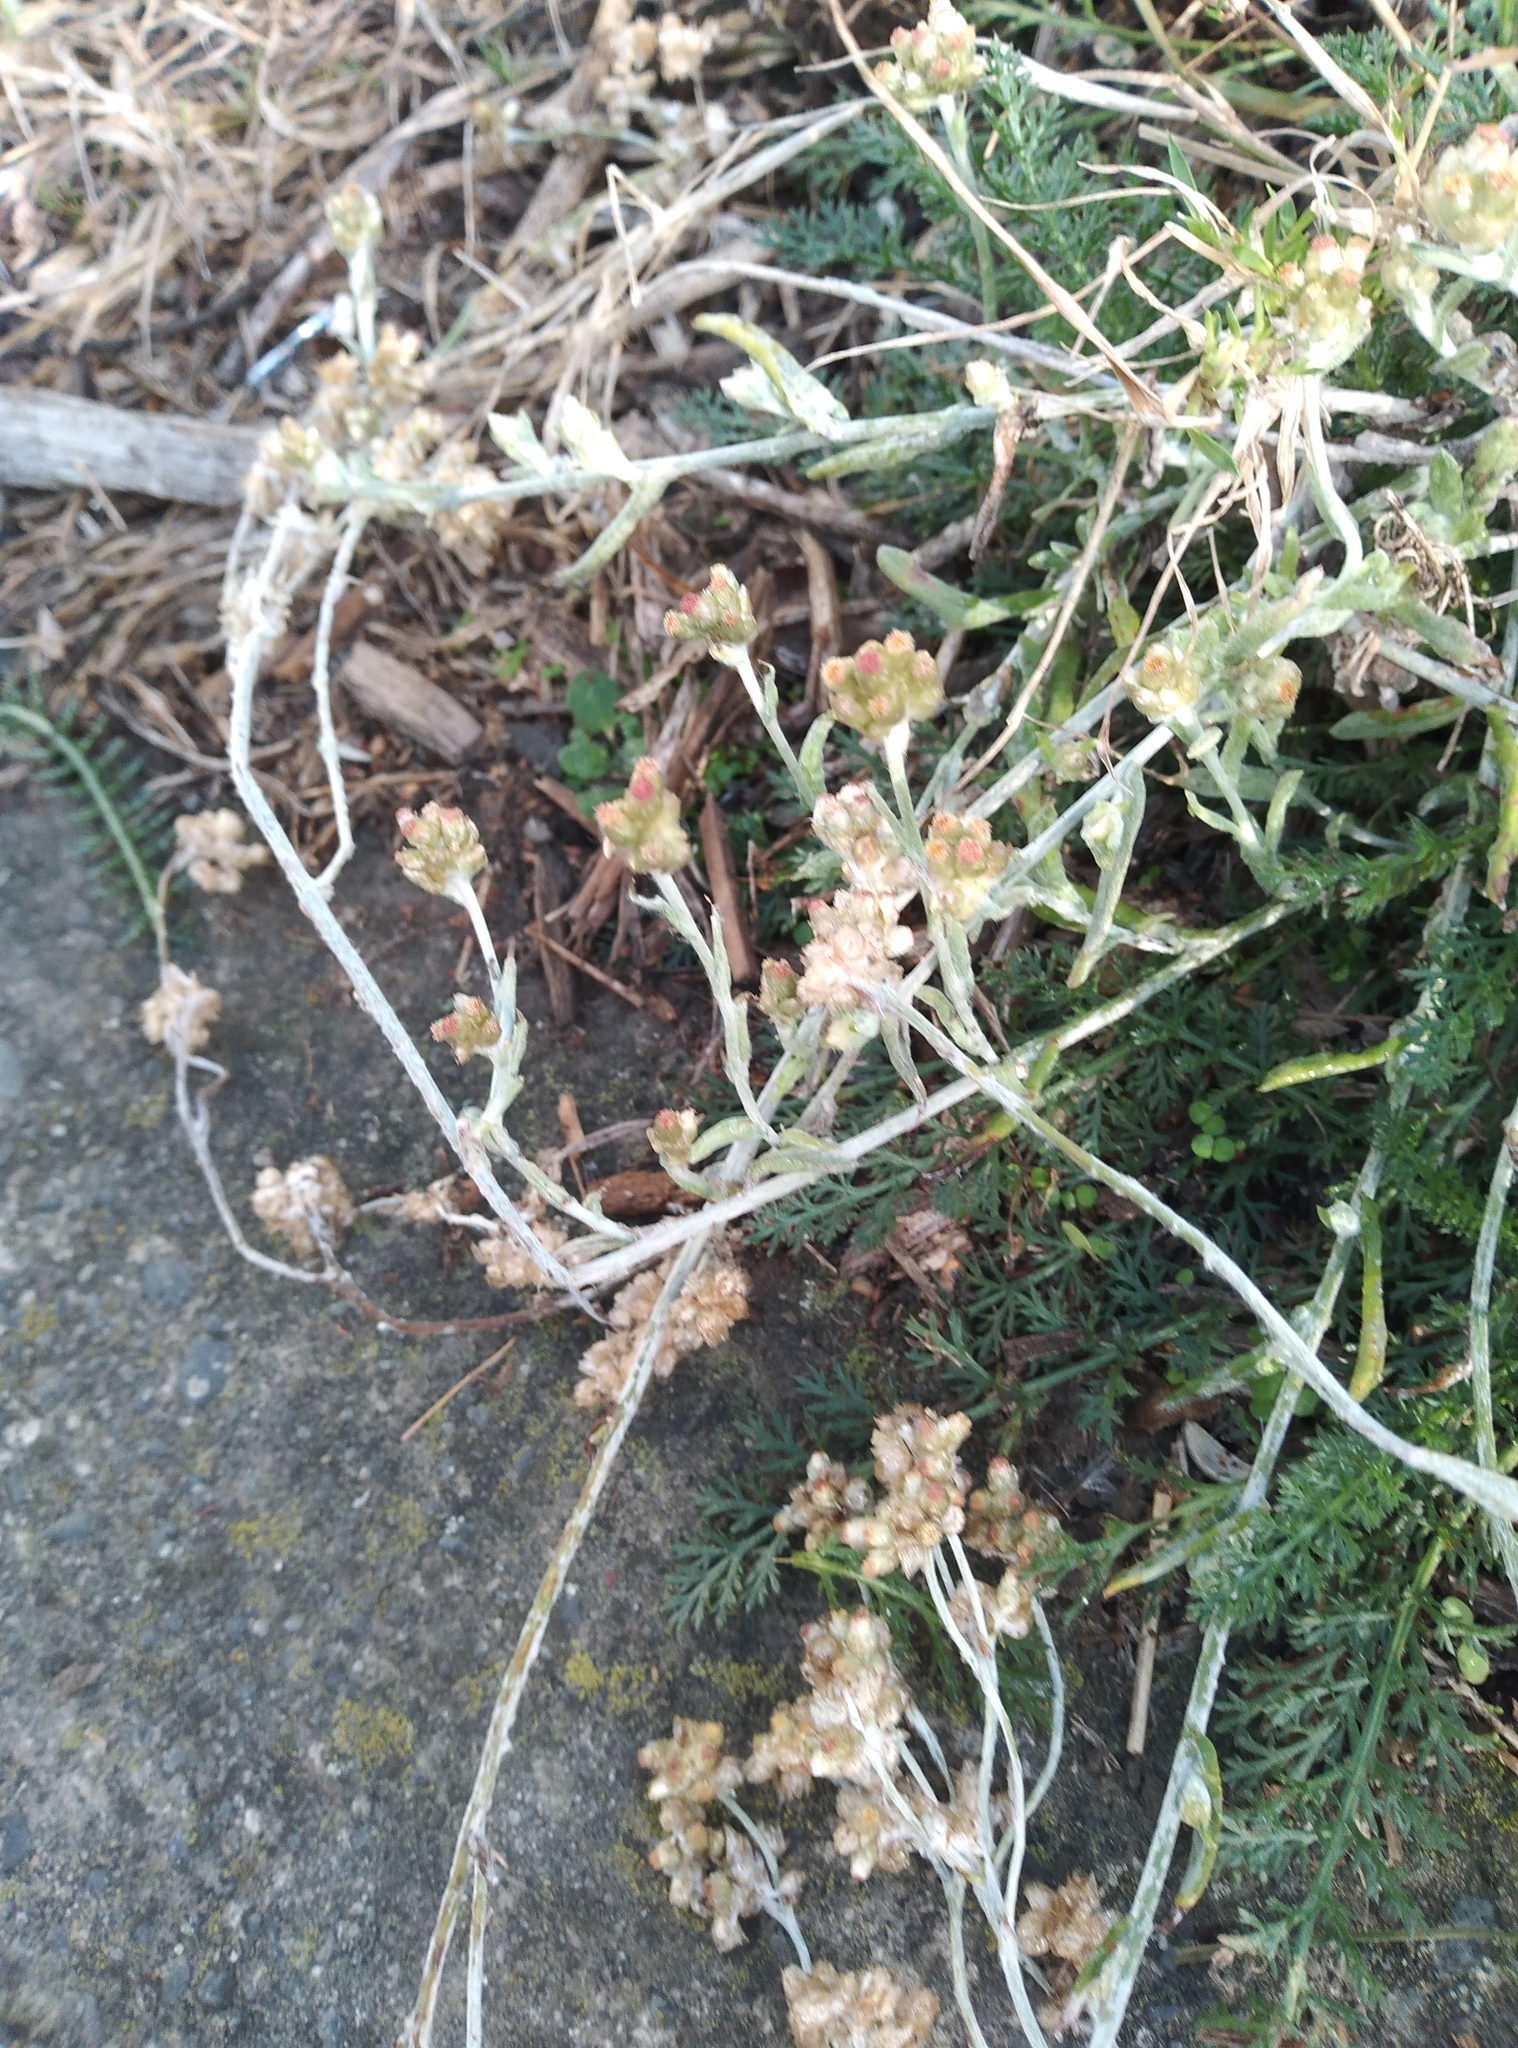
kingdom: Plantae
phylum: Tracheophyta
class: Magnoliopsida
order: Asterales
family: Asteraceae
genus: Helichrysum
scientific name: Helichrysum luteoalbum
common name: Daisy
